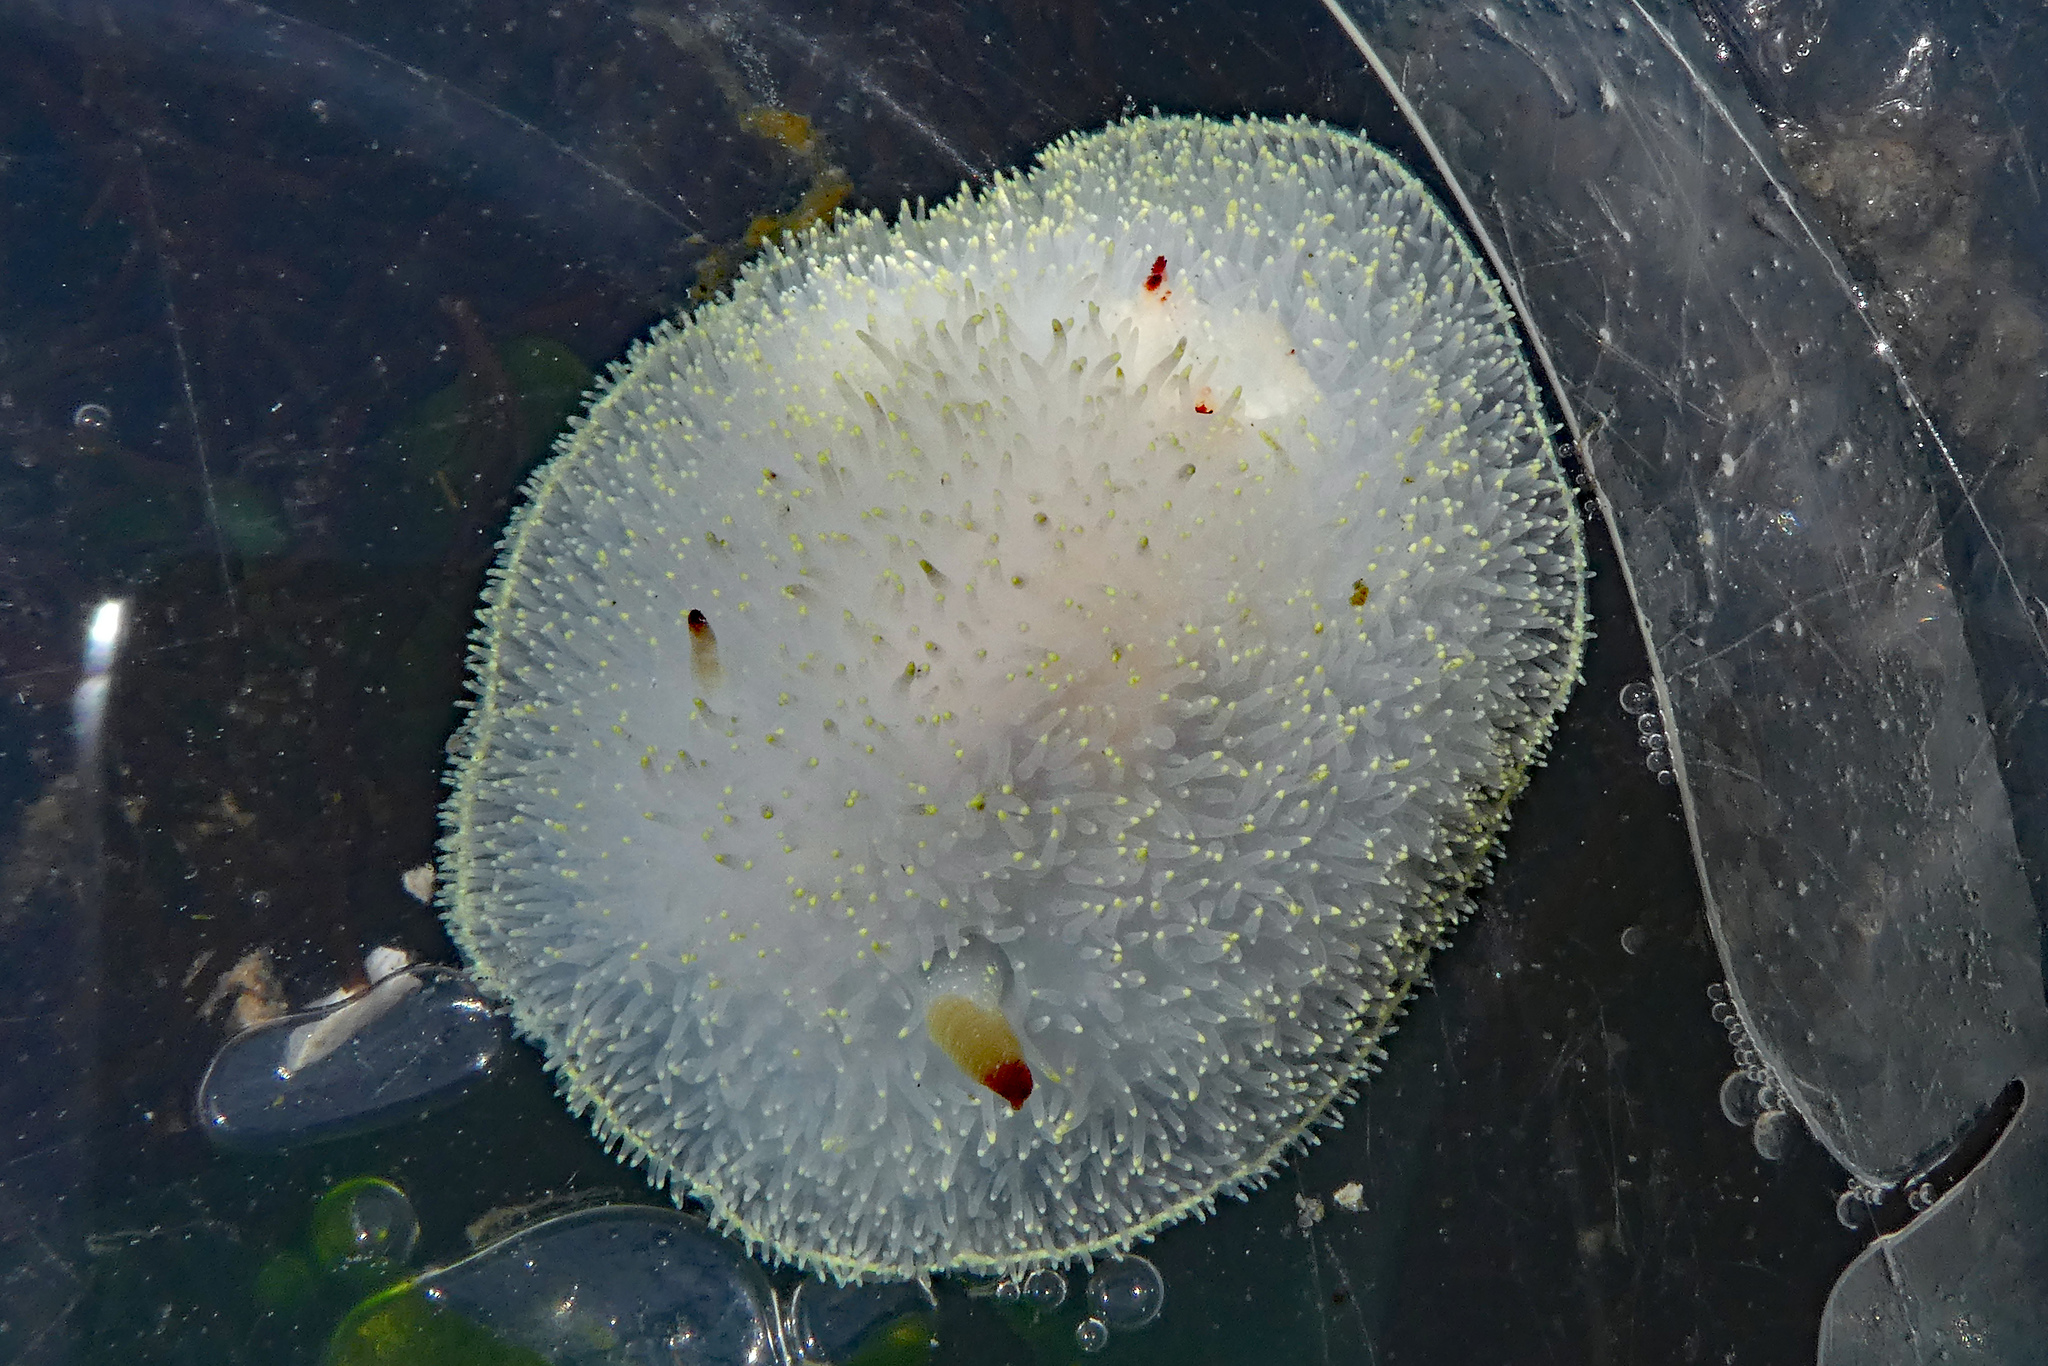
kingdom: Animalia
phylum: Mollusca
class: Gastropoda
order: Nudibranchia
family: Onchidorididae
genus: Acanthodoris
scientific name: Acanthodoris nanaimoensis
